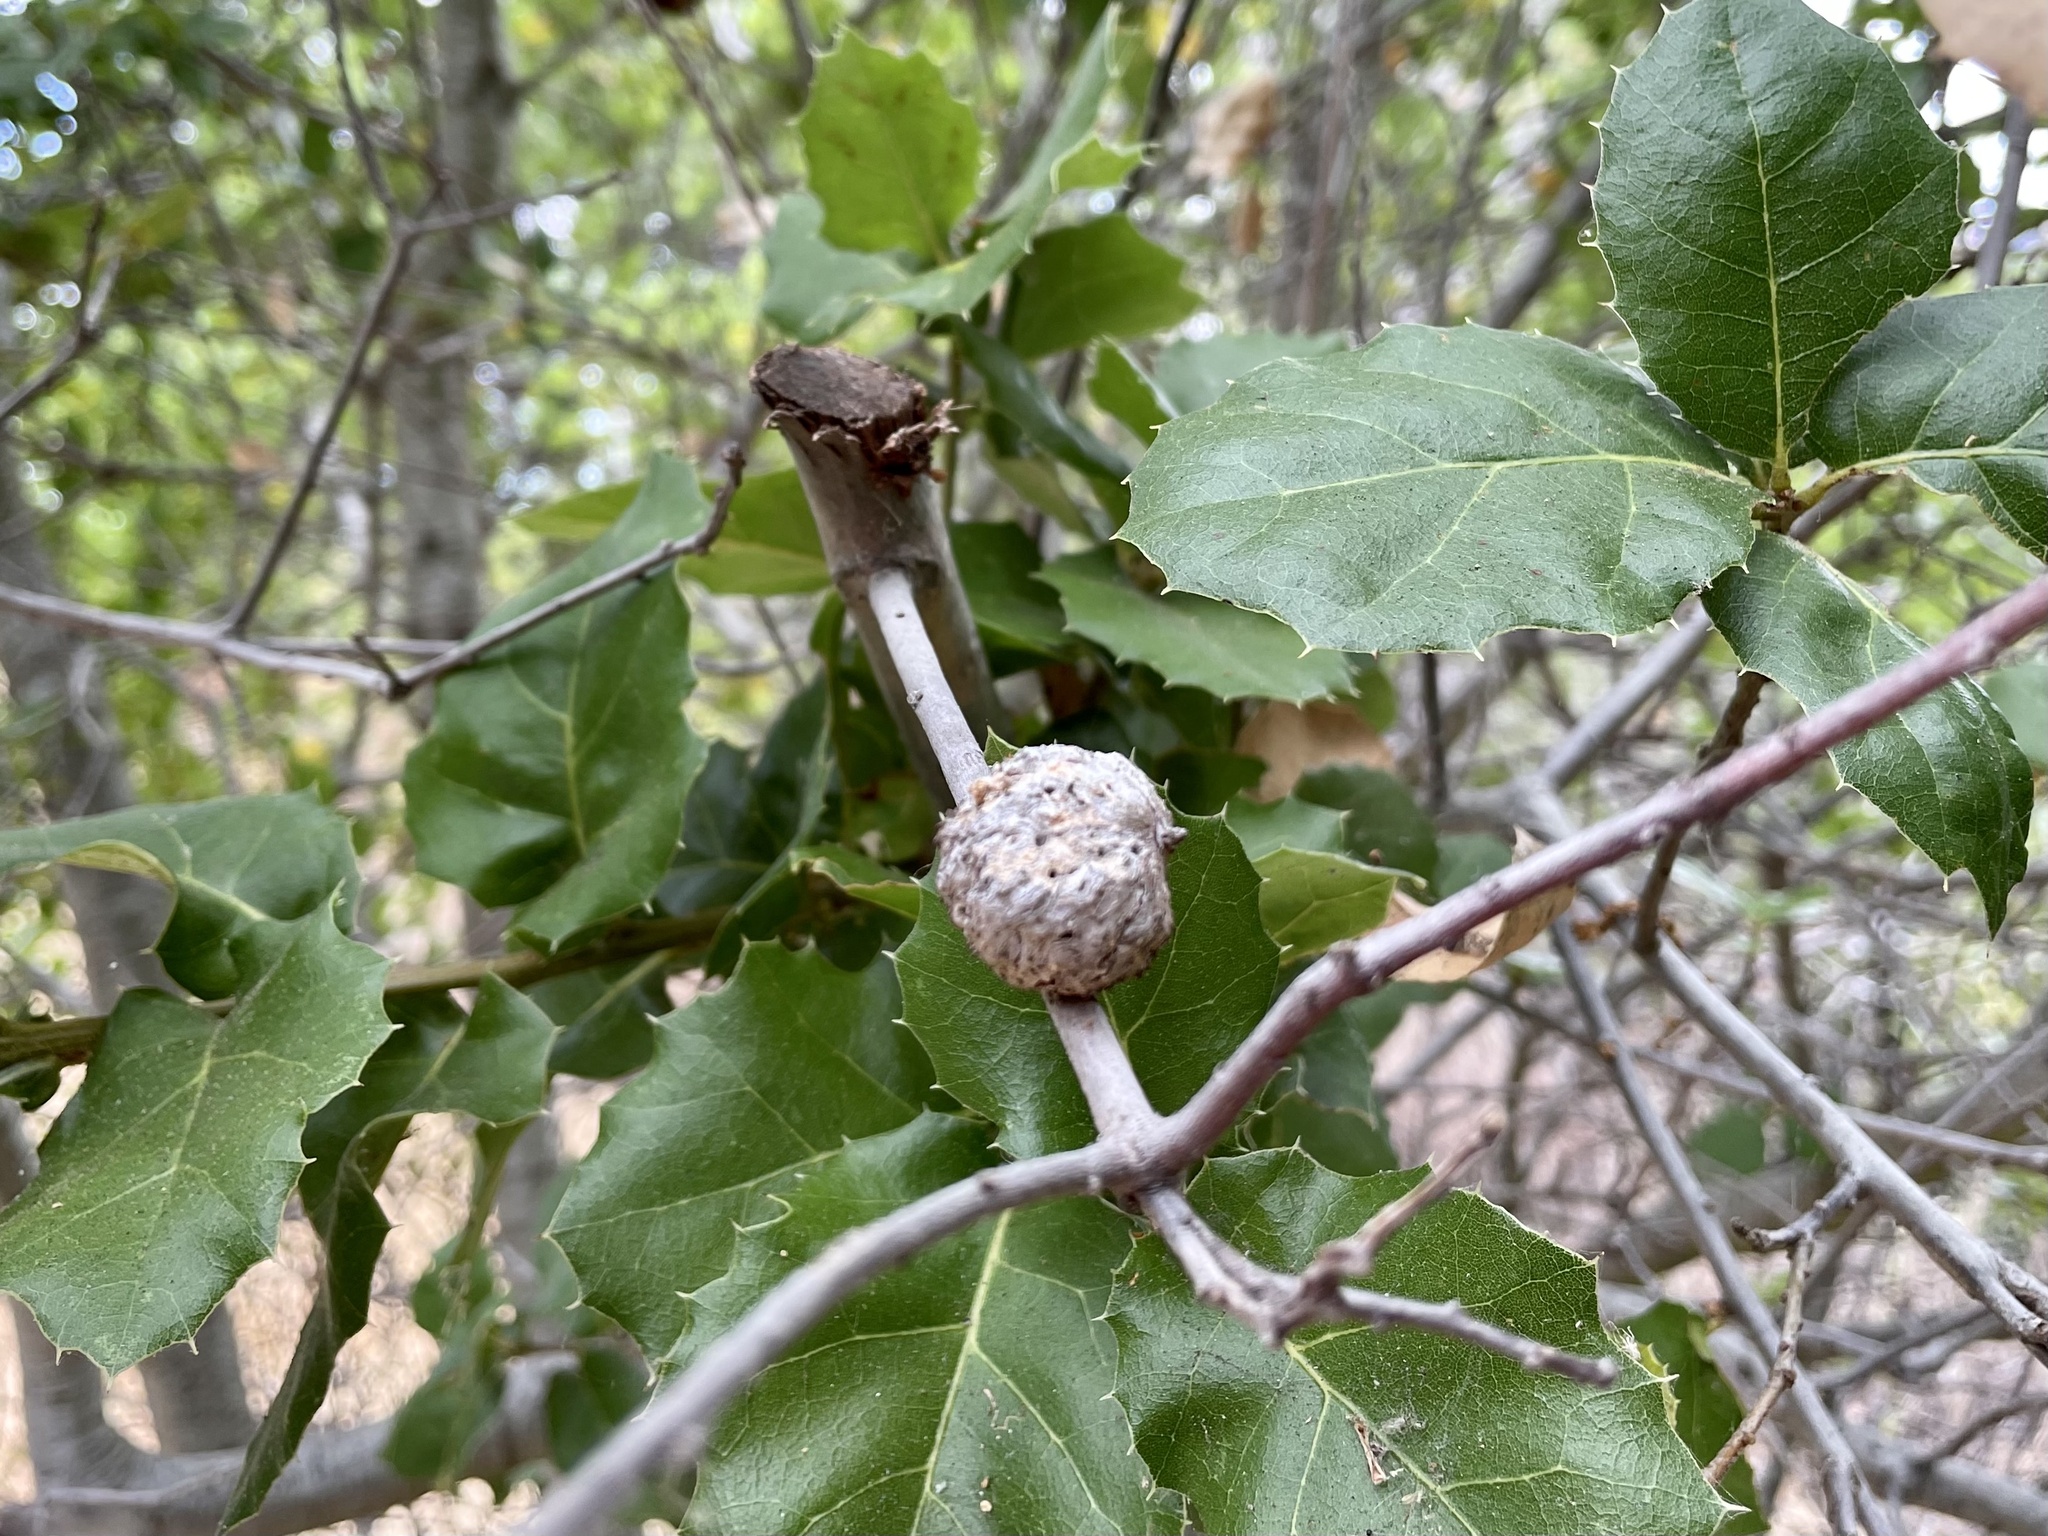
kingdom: Animalia
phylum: Arthropoda
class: Insecta
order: Hymenoptera
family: Cynipidae
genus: Amphibolips
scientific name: Amphibolips quercuspomiformis
